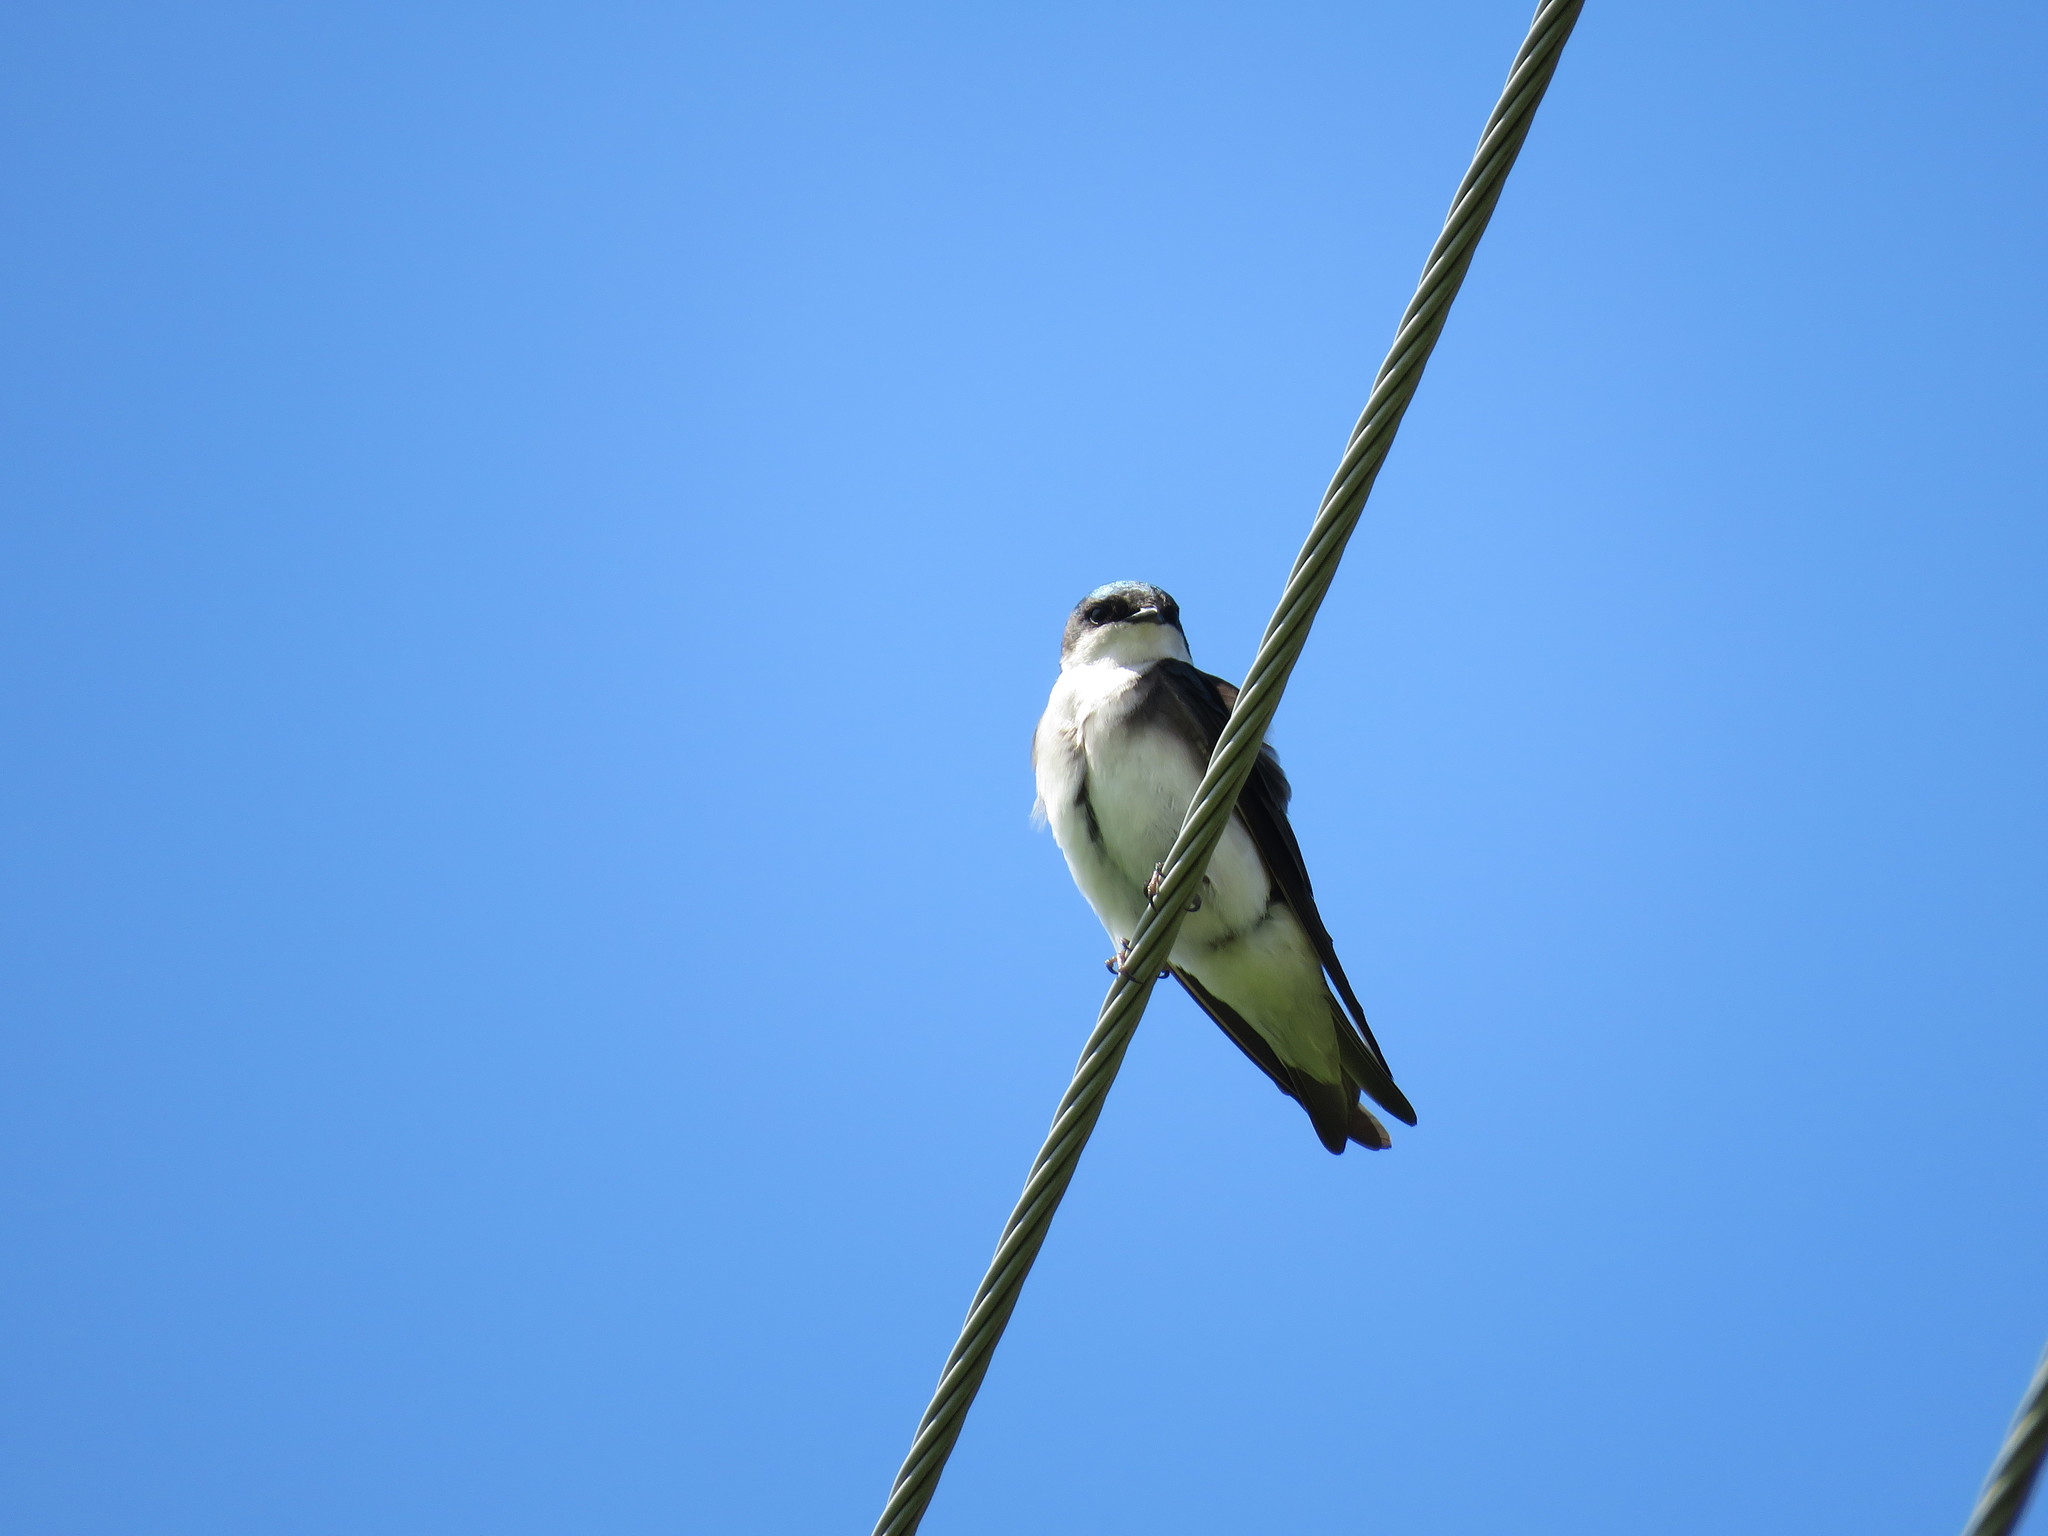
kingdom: Animalia
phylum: Chordata
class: Aves
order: Passeriformes
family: Hirundinidae
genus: Tachycineta
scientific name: Tachycineta bicolor
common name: Tree swallow
